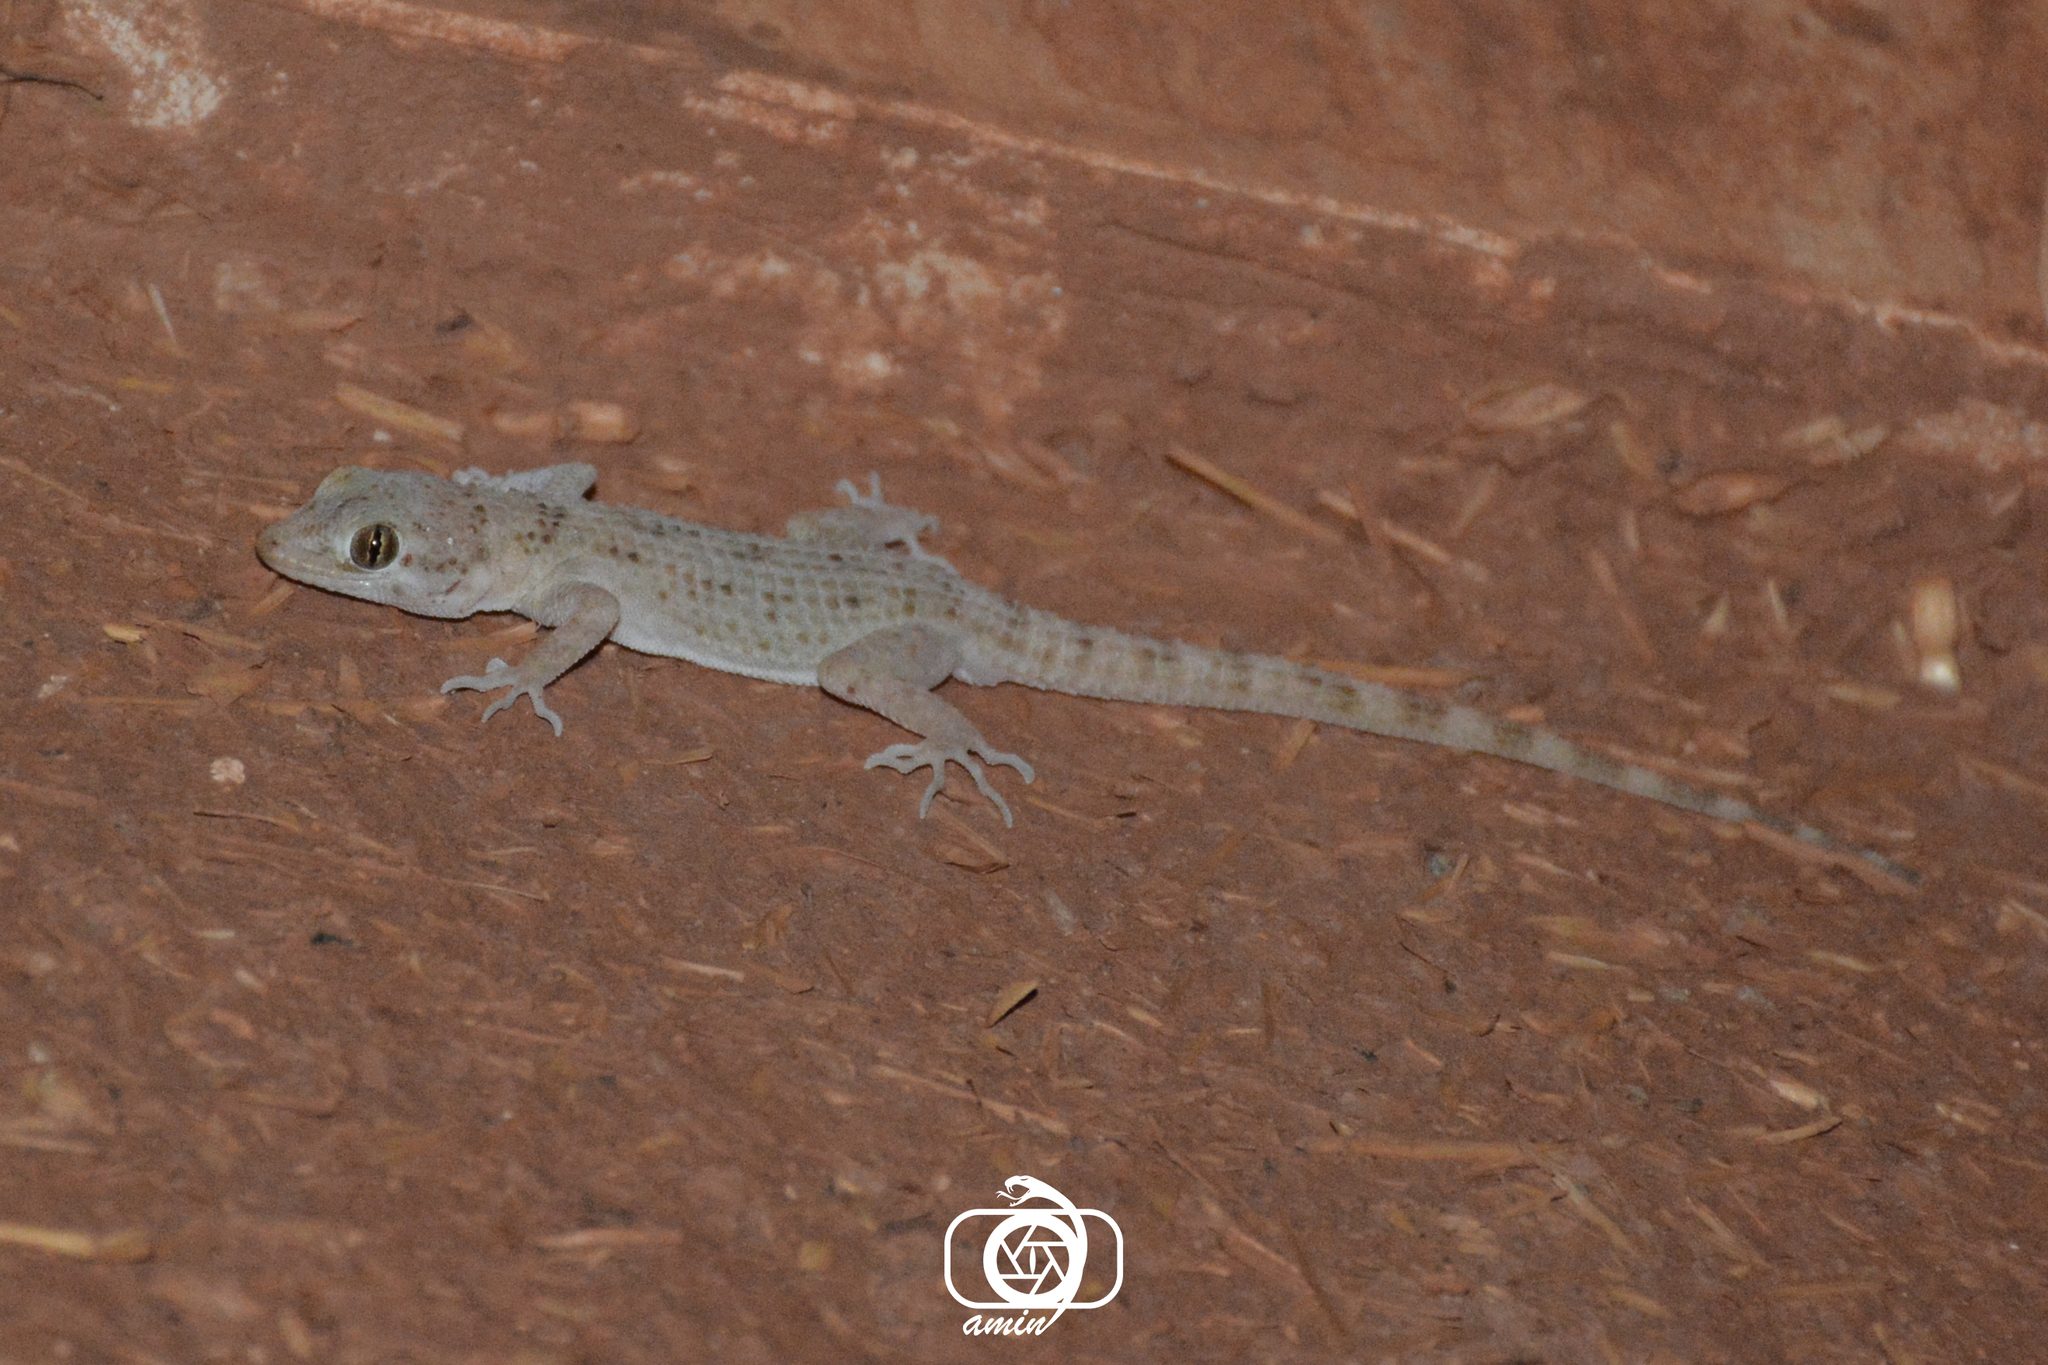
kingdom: Animalia
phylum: Chordata
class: Squamata
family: Gekkonidae
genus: Cyrtopodion
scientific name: Cyrtopodion scabrum
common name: Rough-tailed gecko
